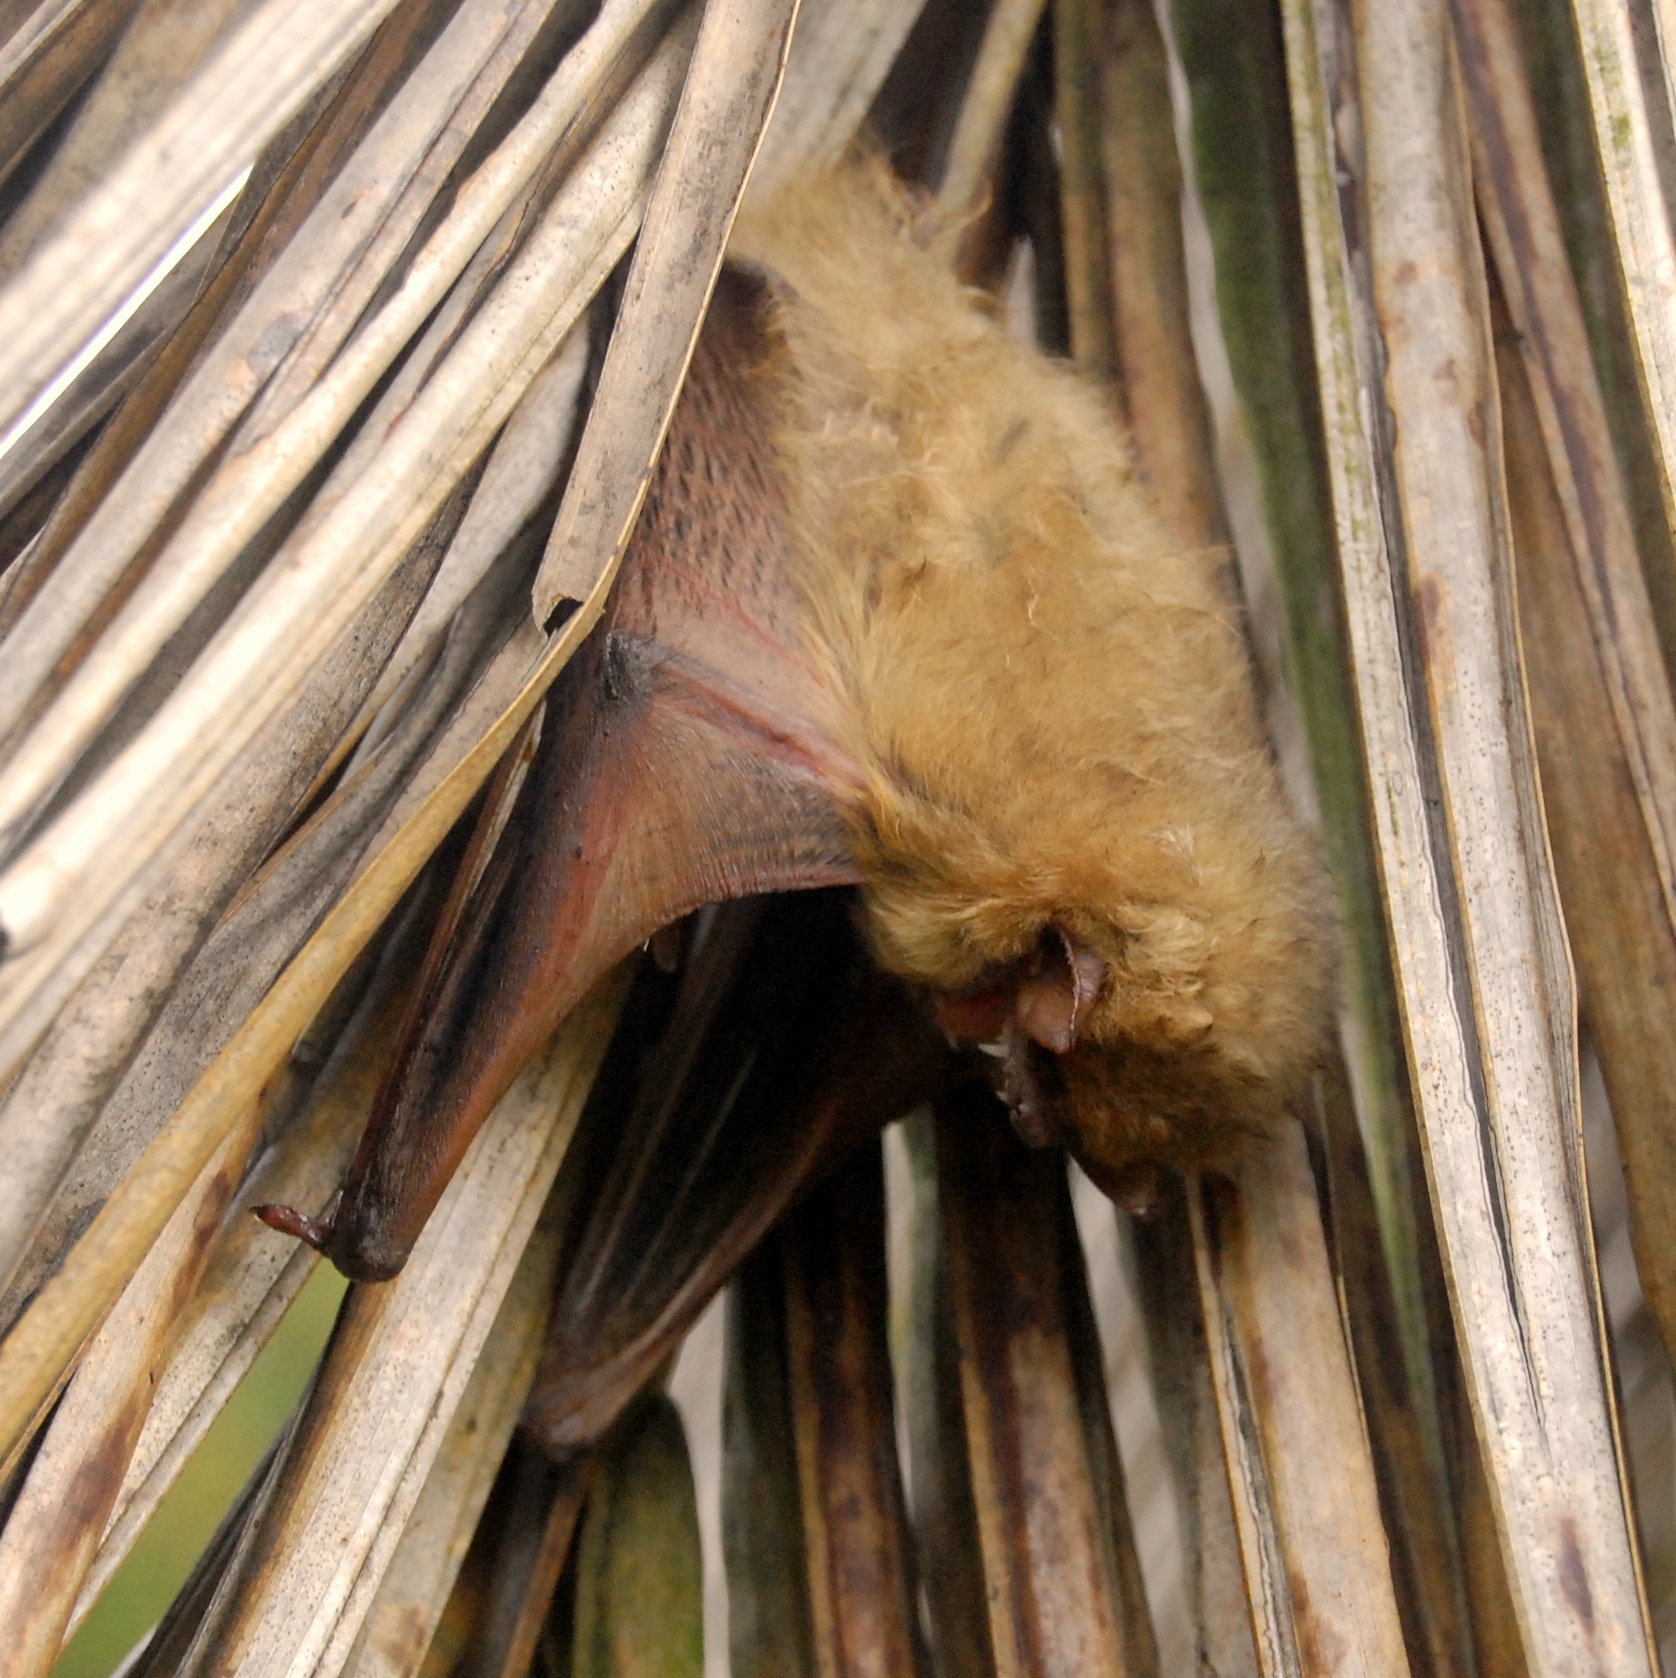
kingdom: Animalia
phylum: Chordata
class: Mammalia
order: Chiroptera
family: Vespertilionidae
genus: Dasypterus
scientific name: Dasypterus ega
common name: Southern yellow bat
